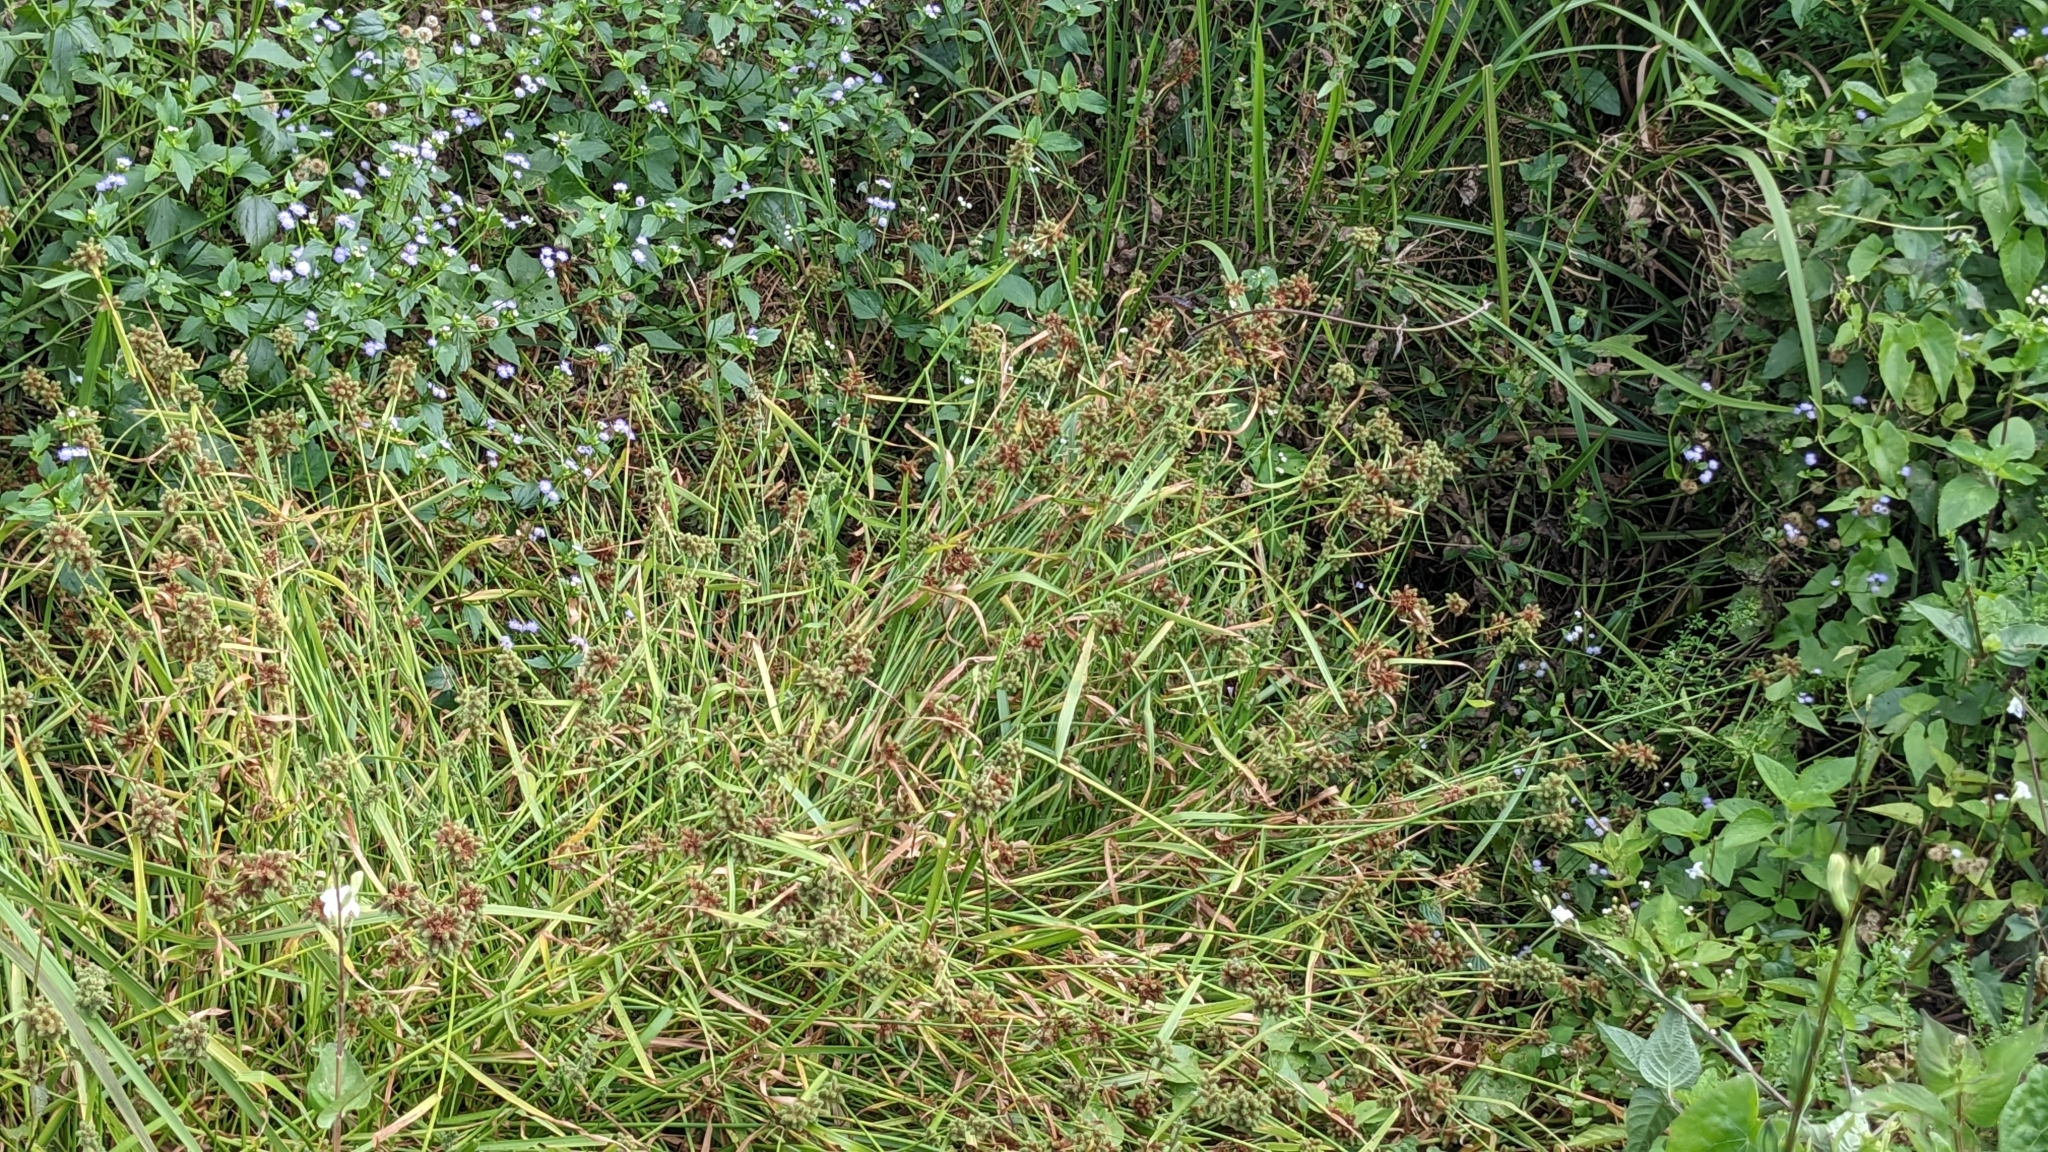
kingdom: Plantae
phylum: Tracheophyta
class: Liliopsida
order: Poales
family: Cyperaceae
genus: Fuirena
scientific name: Fuirena ciliaris
